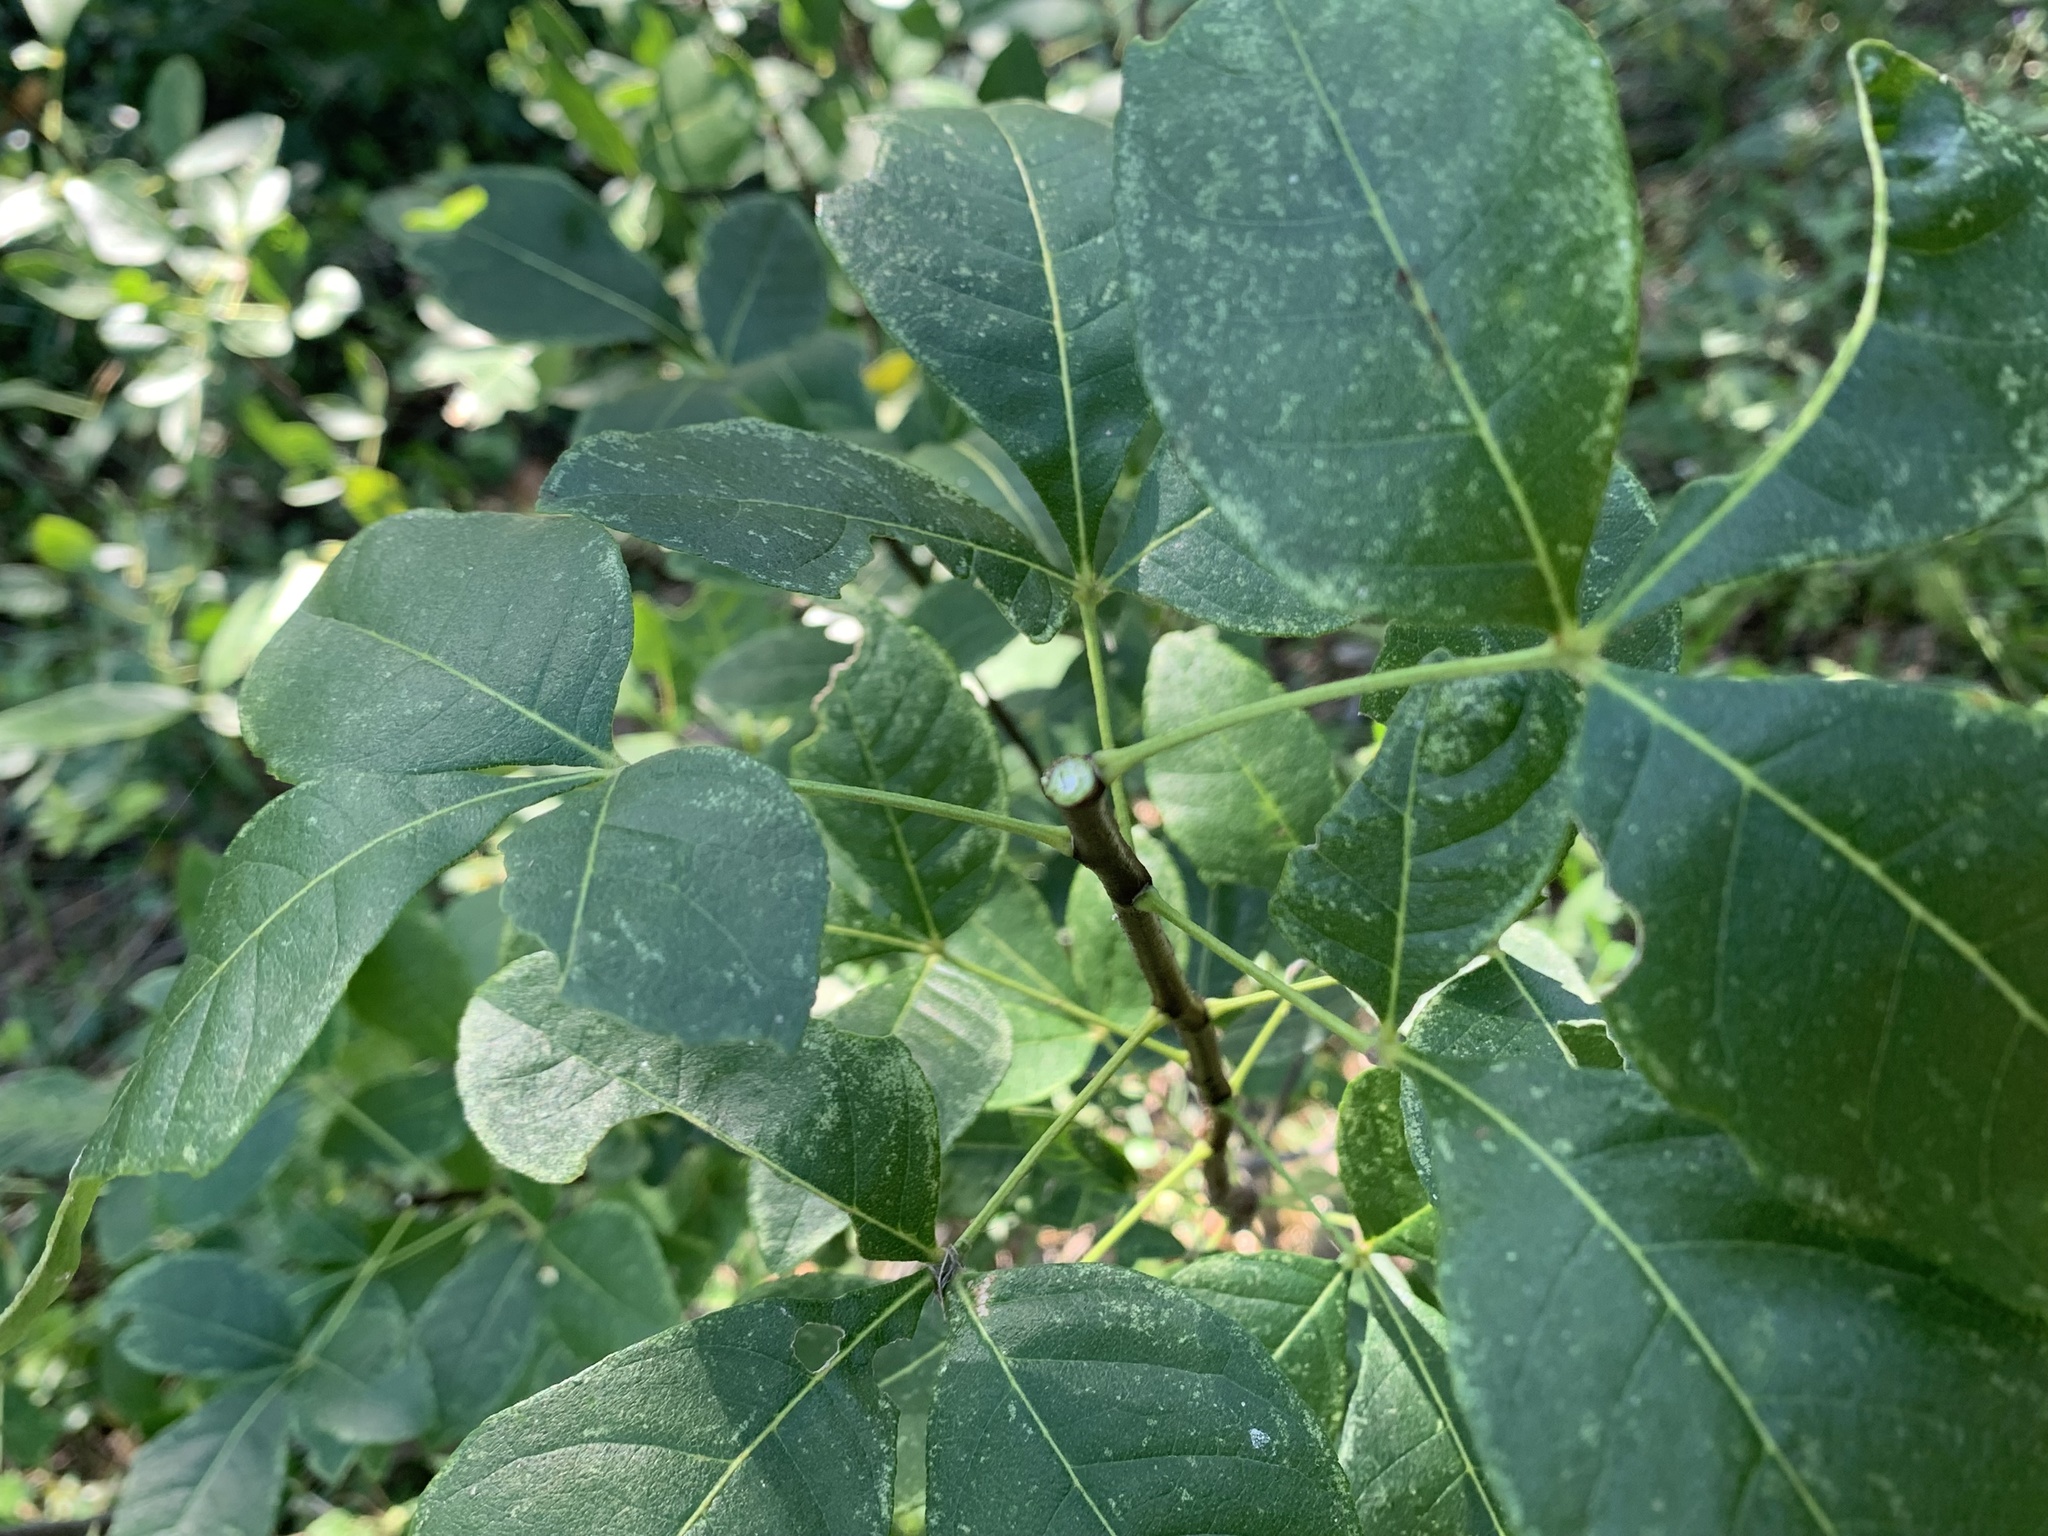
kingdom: Plantae
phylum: Tracheophyta
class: Magnoliopsida
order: Sapindales
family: Rutaceae
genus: Ptelea
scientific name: Ptelea trifoliata
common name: Common hop-tree
